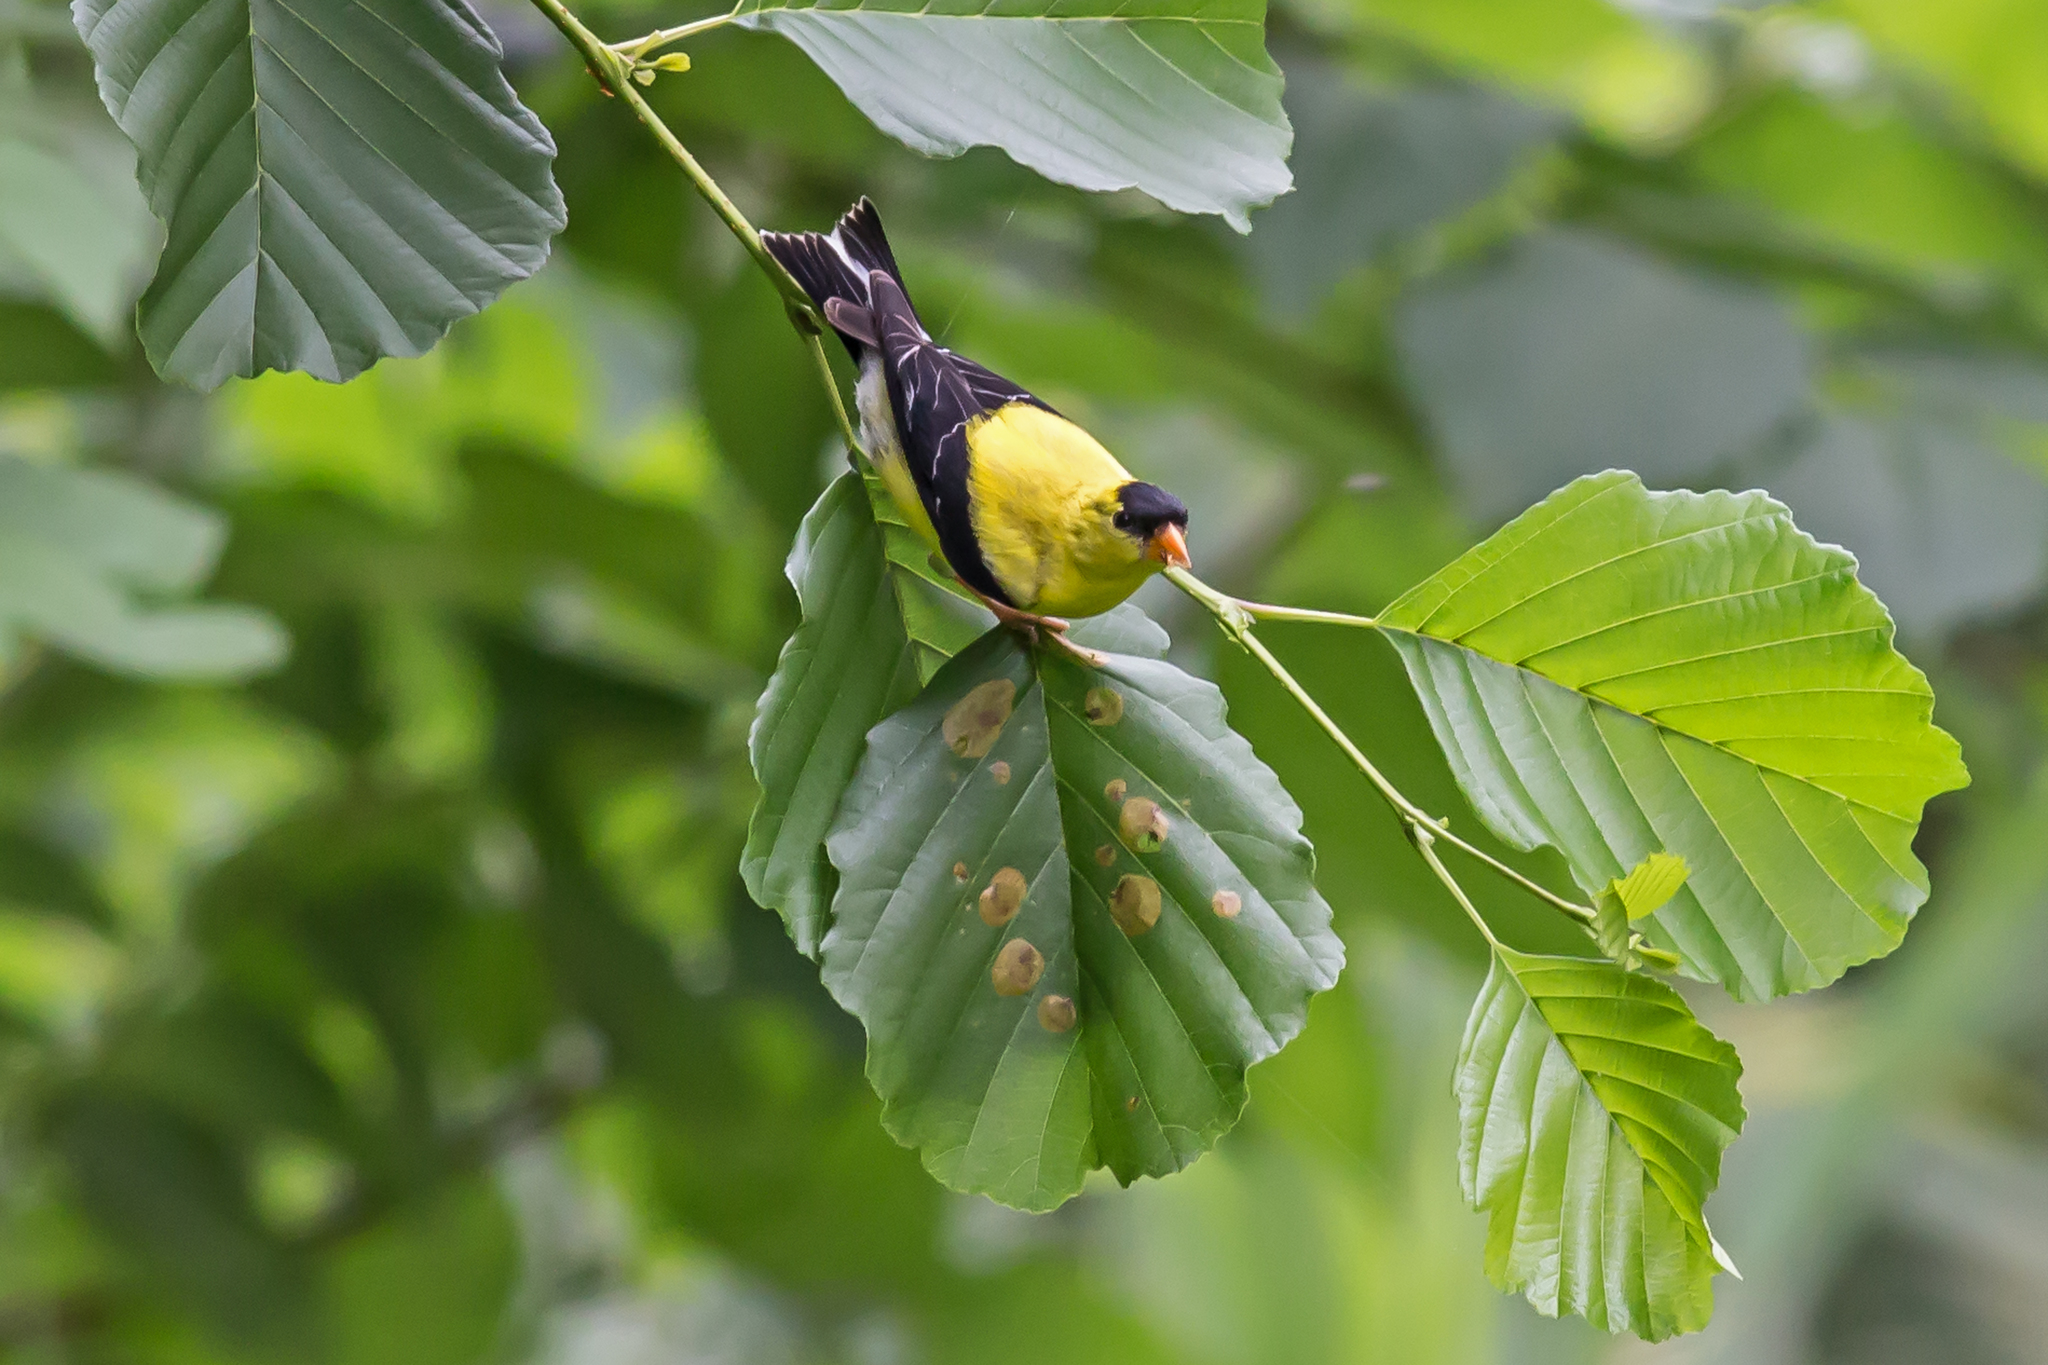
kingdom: Animalia
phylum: Chordata
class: Aves
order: Passeriformes
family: Fringillidae
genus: Spinus
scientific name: Spinus tristis
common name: American goldfinch
